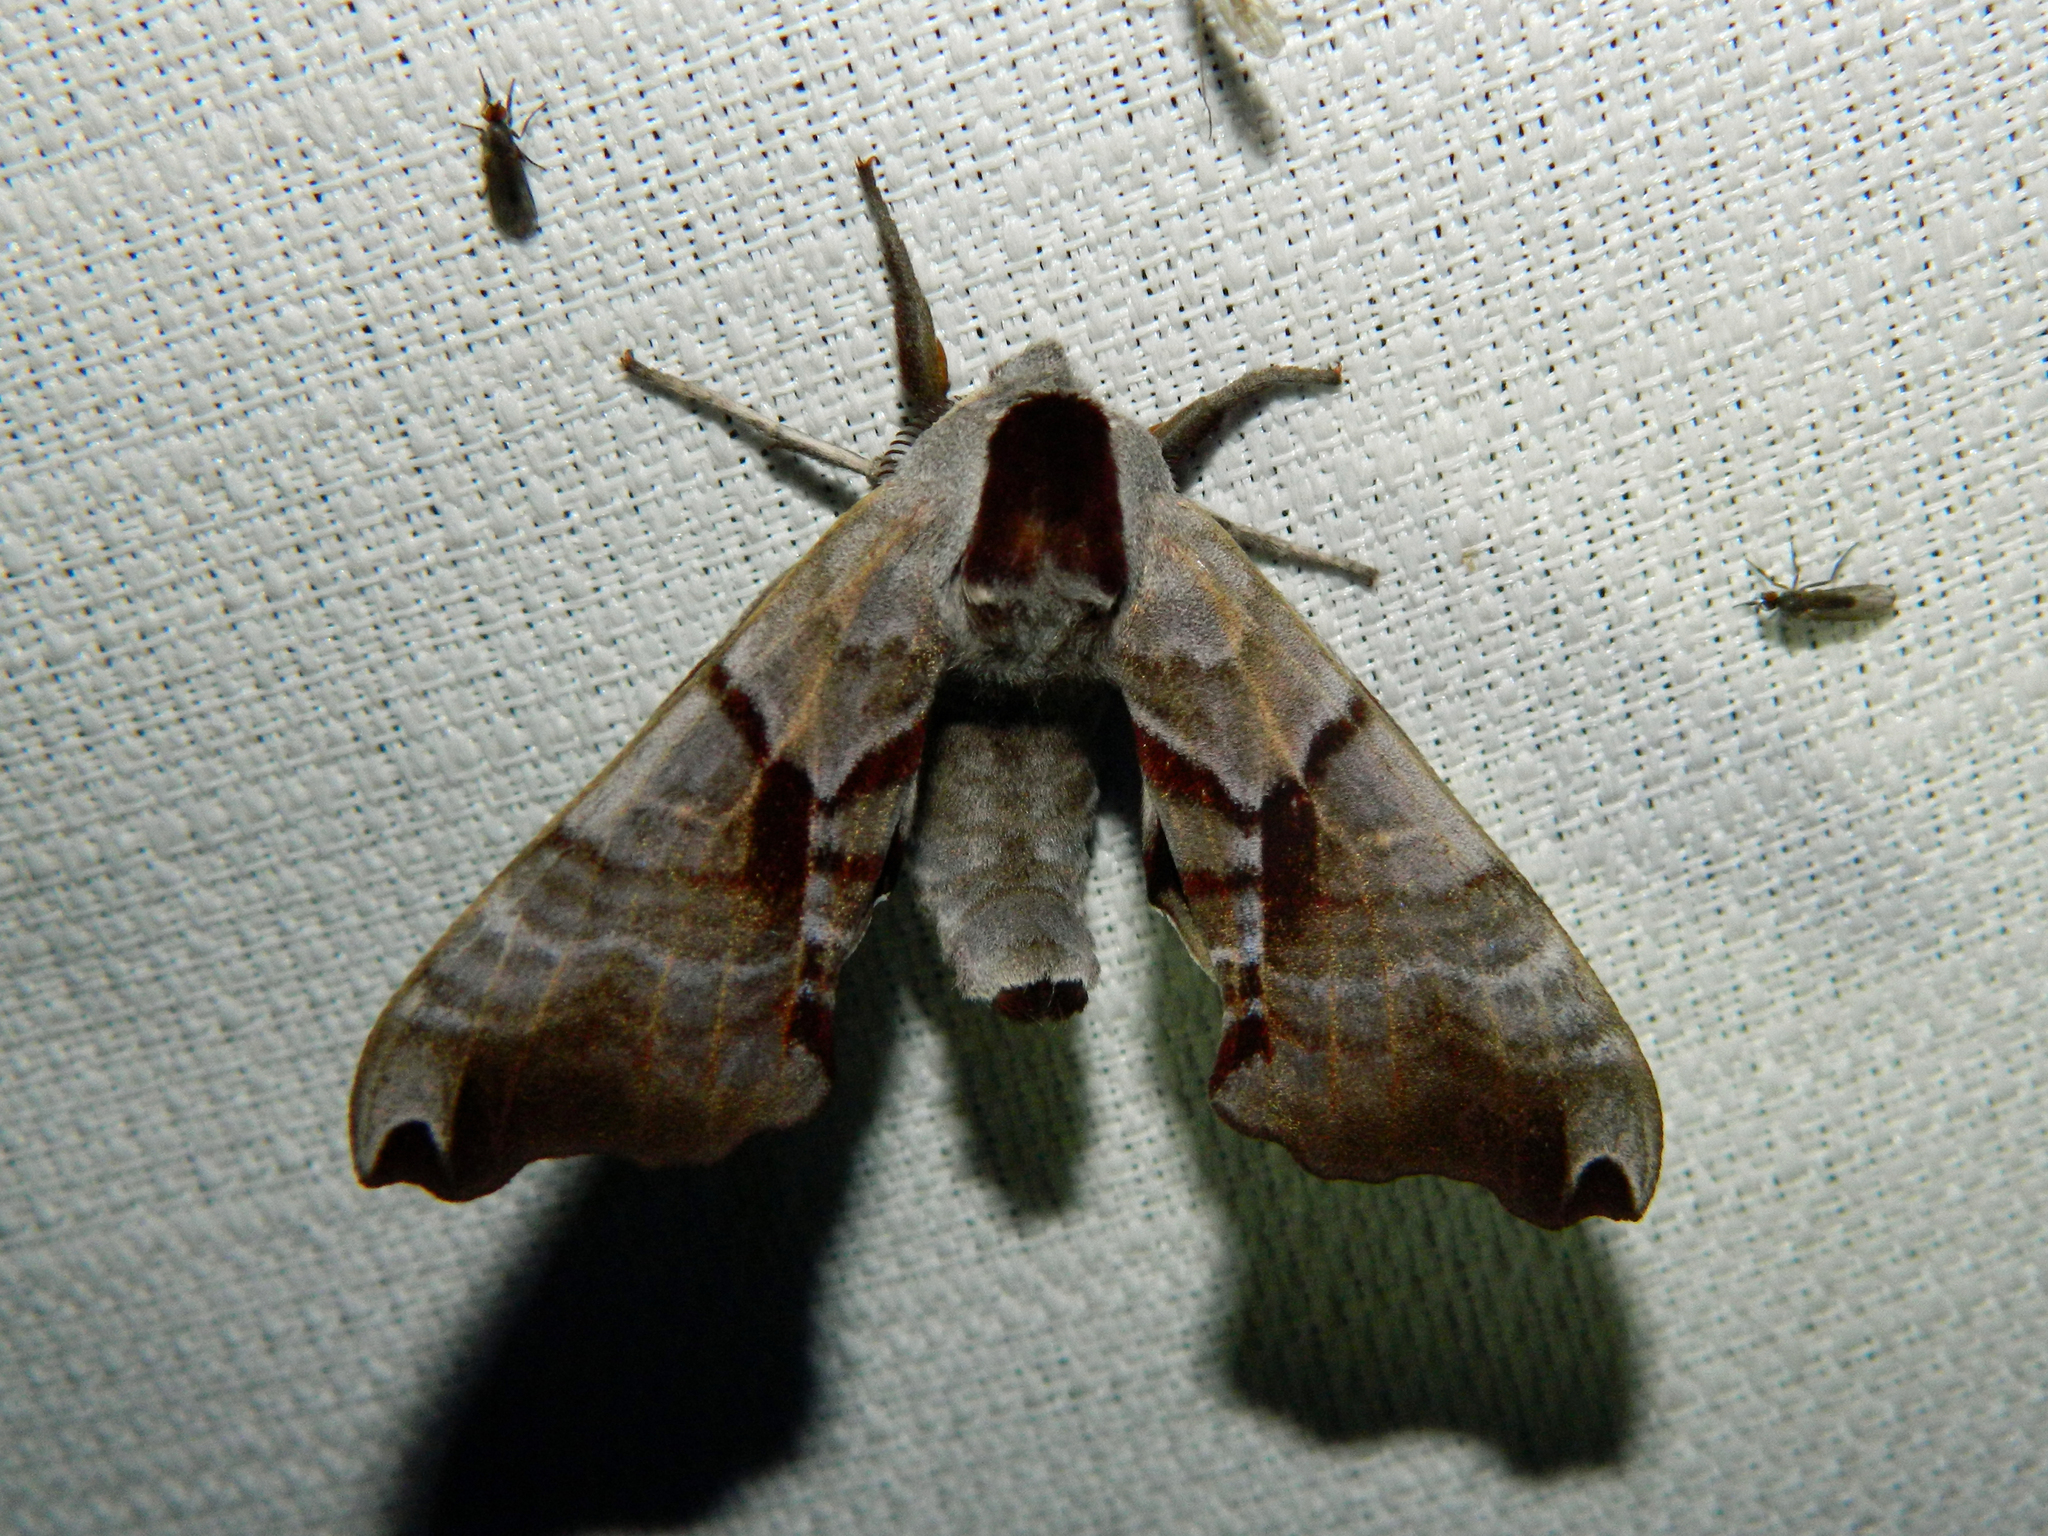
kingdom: Animalia
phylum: Arthropoda
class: Insecta
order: Lepidoptera
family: Sphingidae
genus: Smerinthus
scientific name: Smerinthus jamaicensis
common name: Twin spotted sphinx
